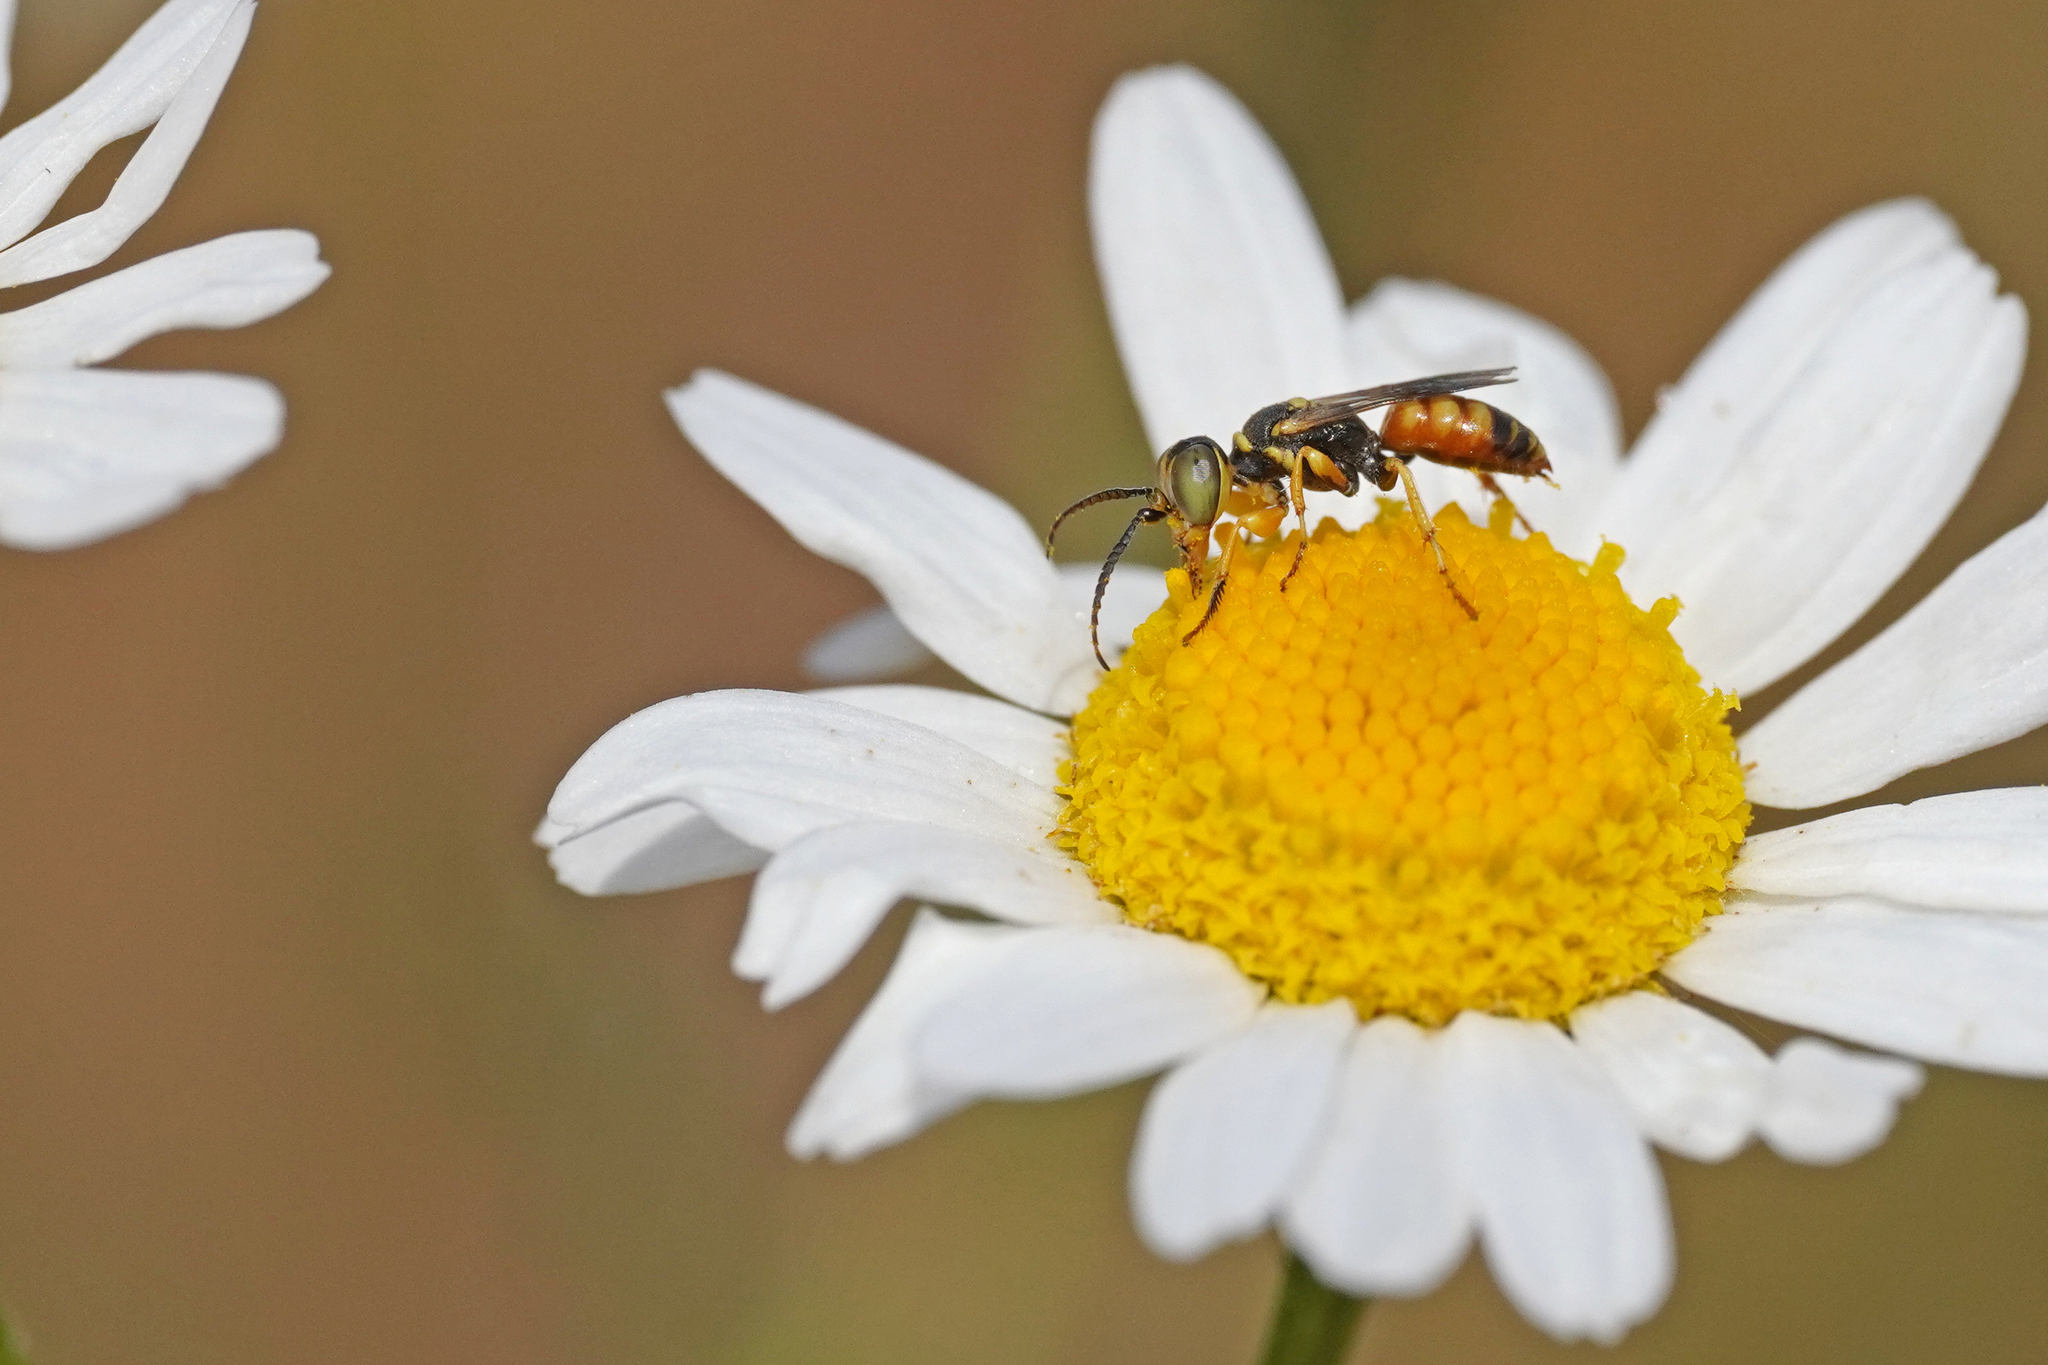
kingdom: Animalia
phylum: Arthropoda
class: Insecta
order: Hymenoptera
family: Crabronidae
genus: Dinetus
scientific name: Dinetus pictus
